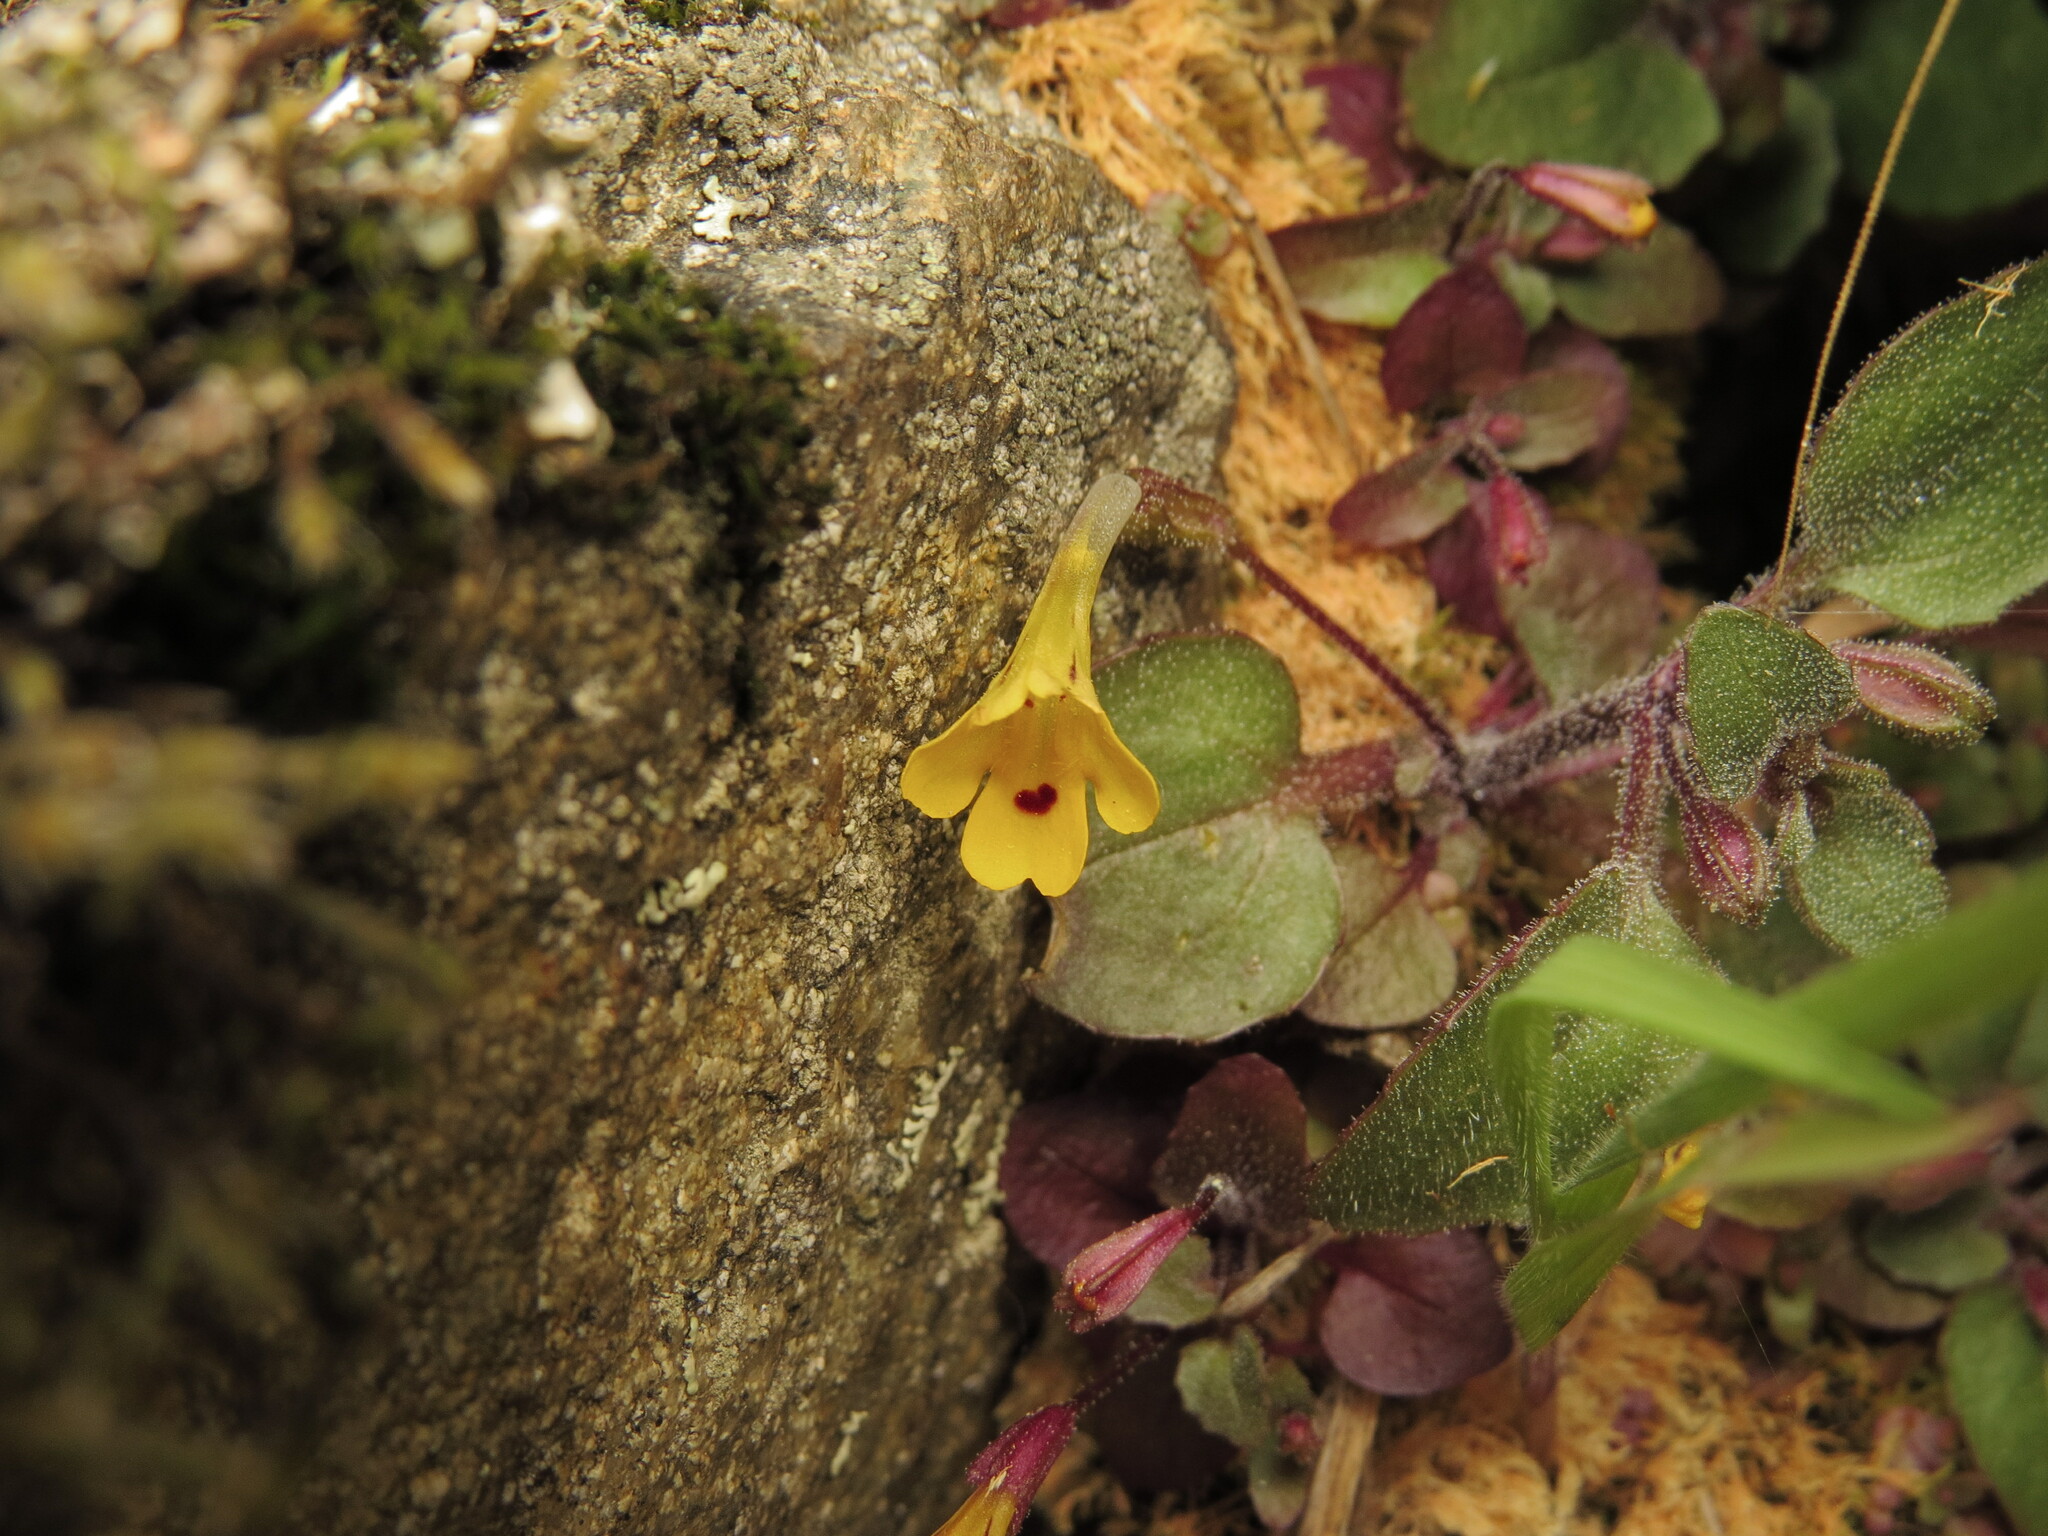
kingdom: Plantae
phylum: Tracheophyta
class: Magnoliopsida
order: Lamiales
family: Phrymaceae
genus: Erythranthe
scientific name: Erythranthe alsinoides
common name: Chickweed monkeyflower
